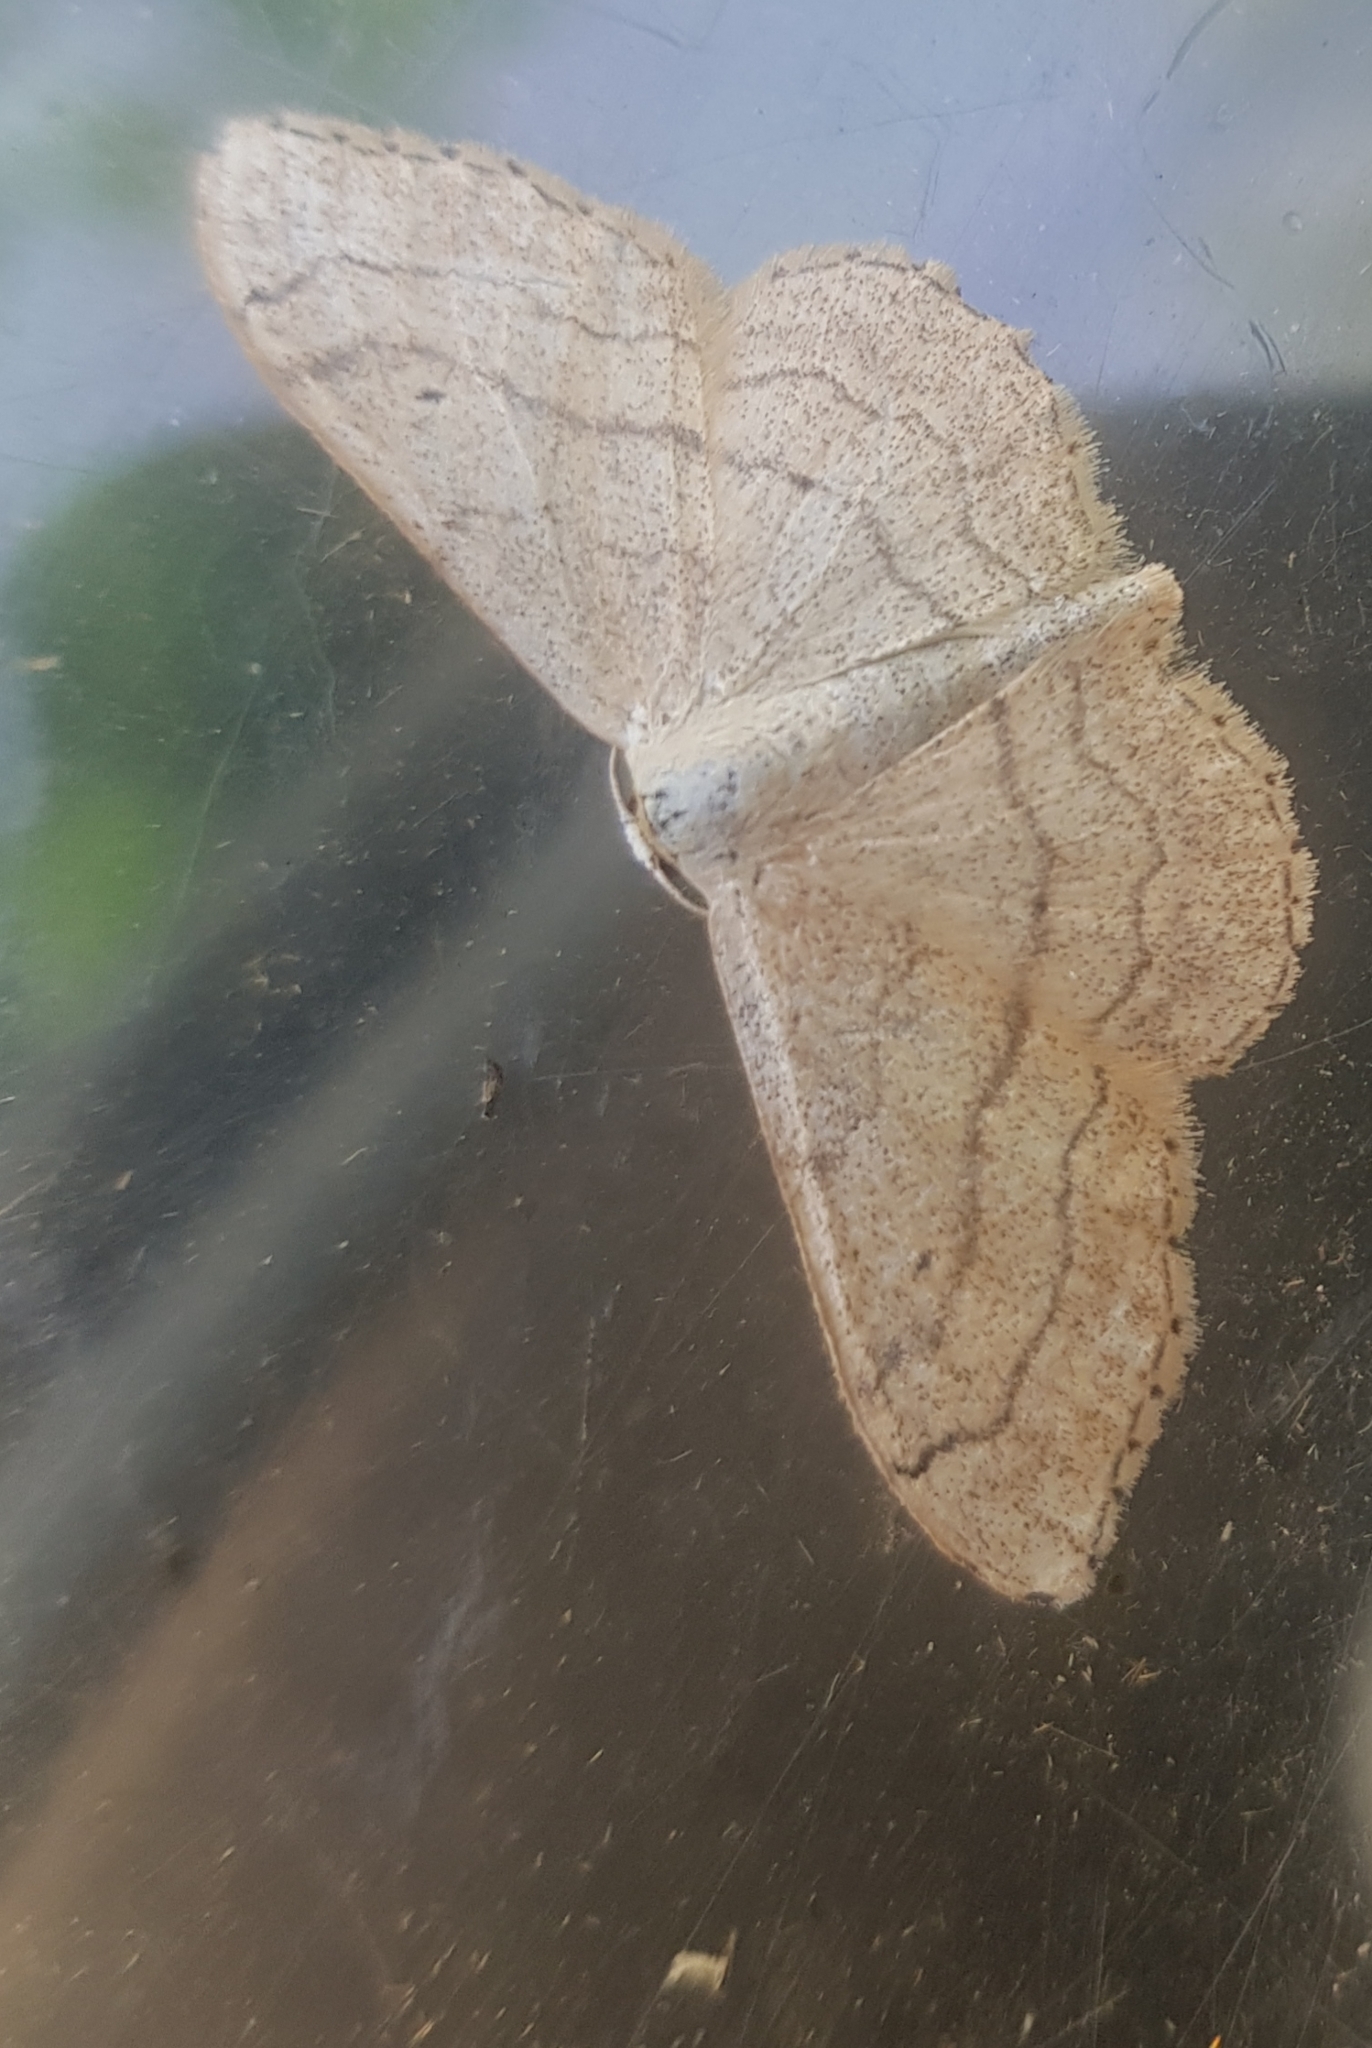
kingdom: Animalia
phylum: Arthropoda
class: Insecta
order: Lepidoptera
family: Geometridae
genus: Idaea
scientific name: Idaea aversata
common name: Riband wave
